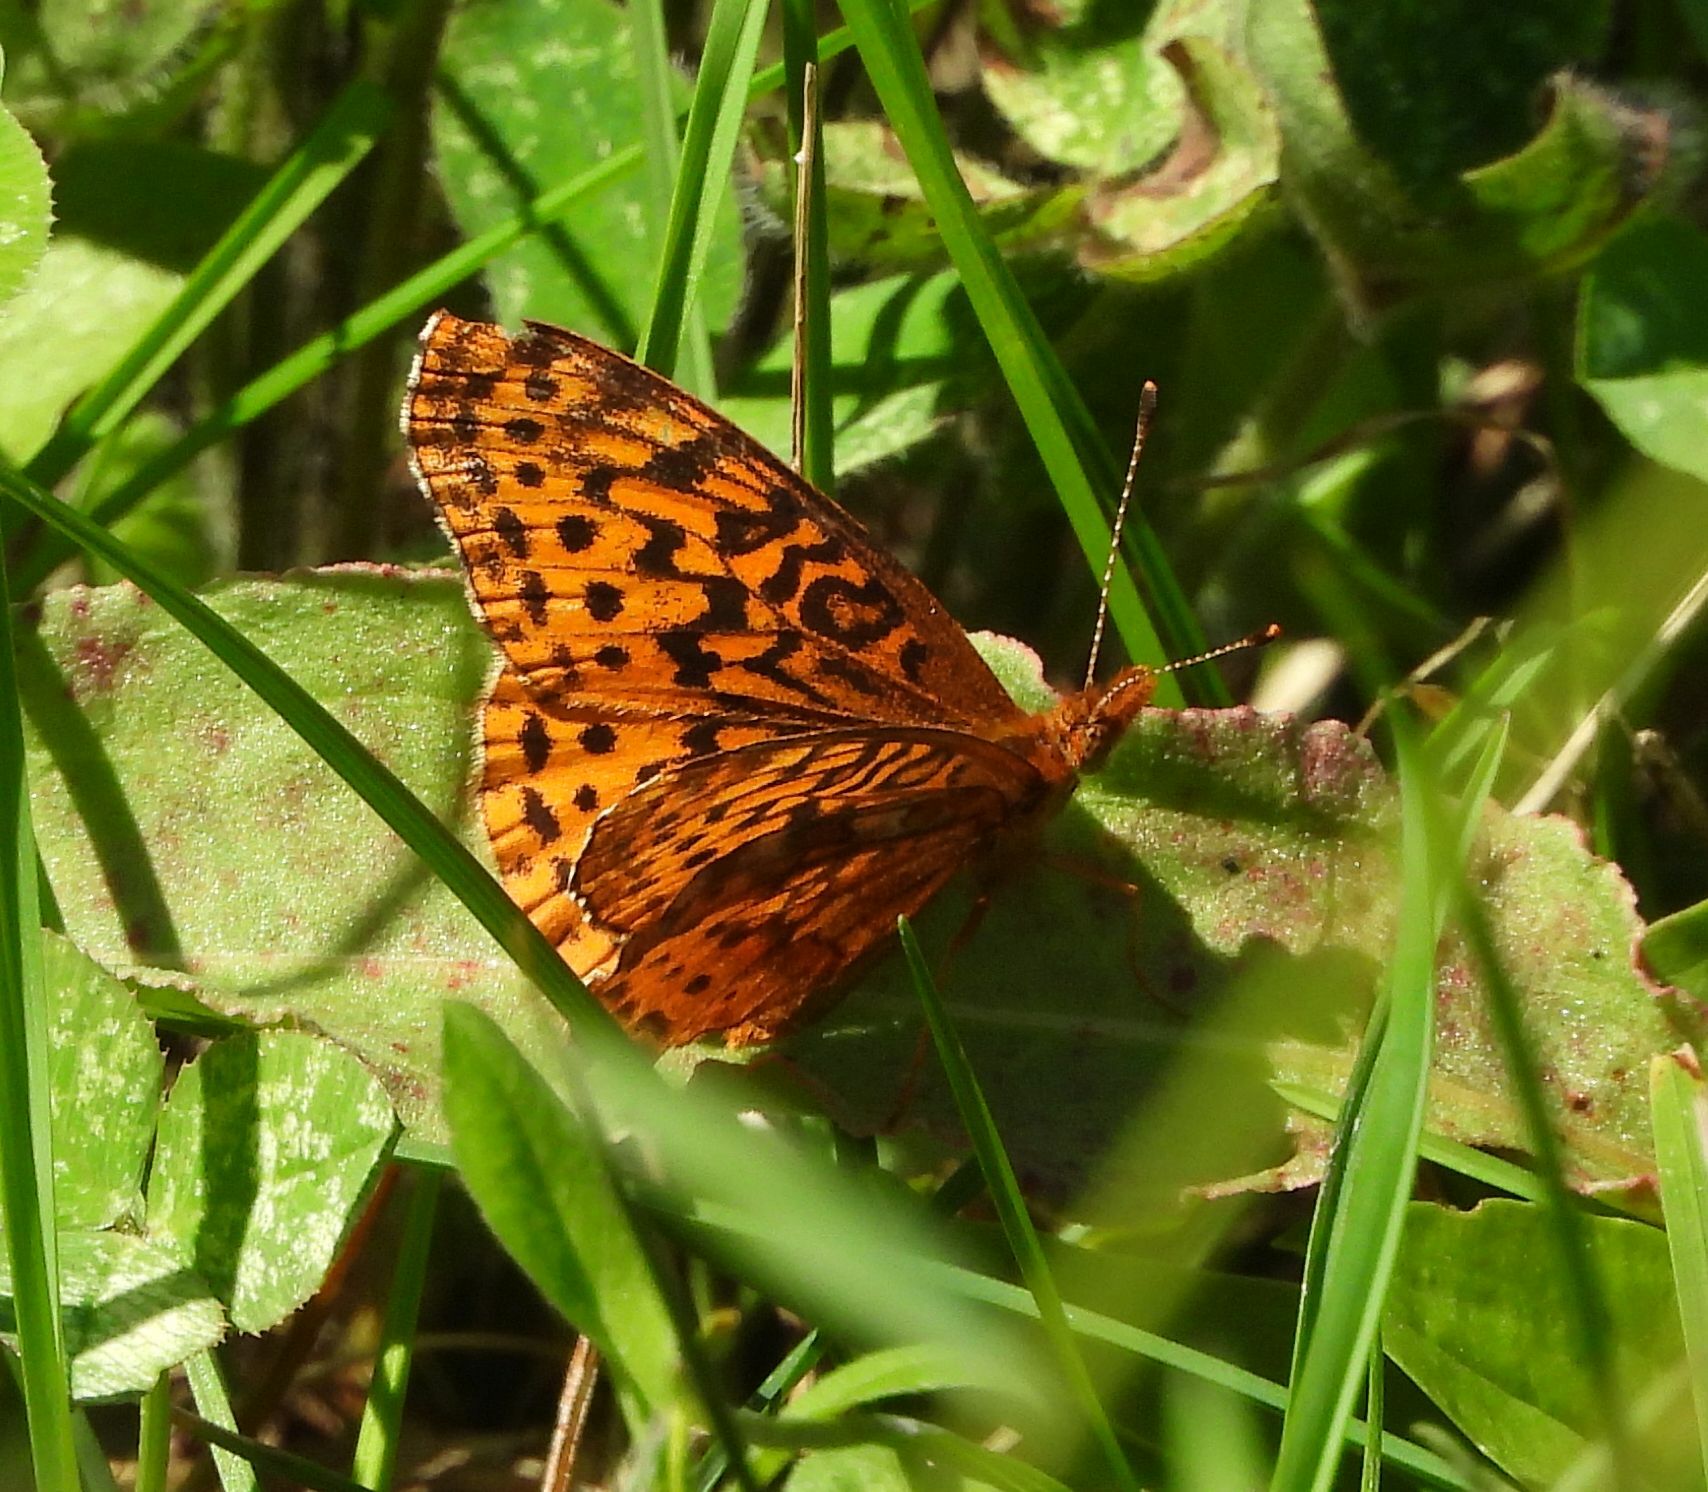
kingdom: Animalia
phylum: Arthropoda
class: Insecta
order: Lepidoptera
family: Nymphalidae
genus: Clossiana
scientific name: Clossiana toddi
